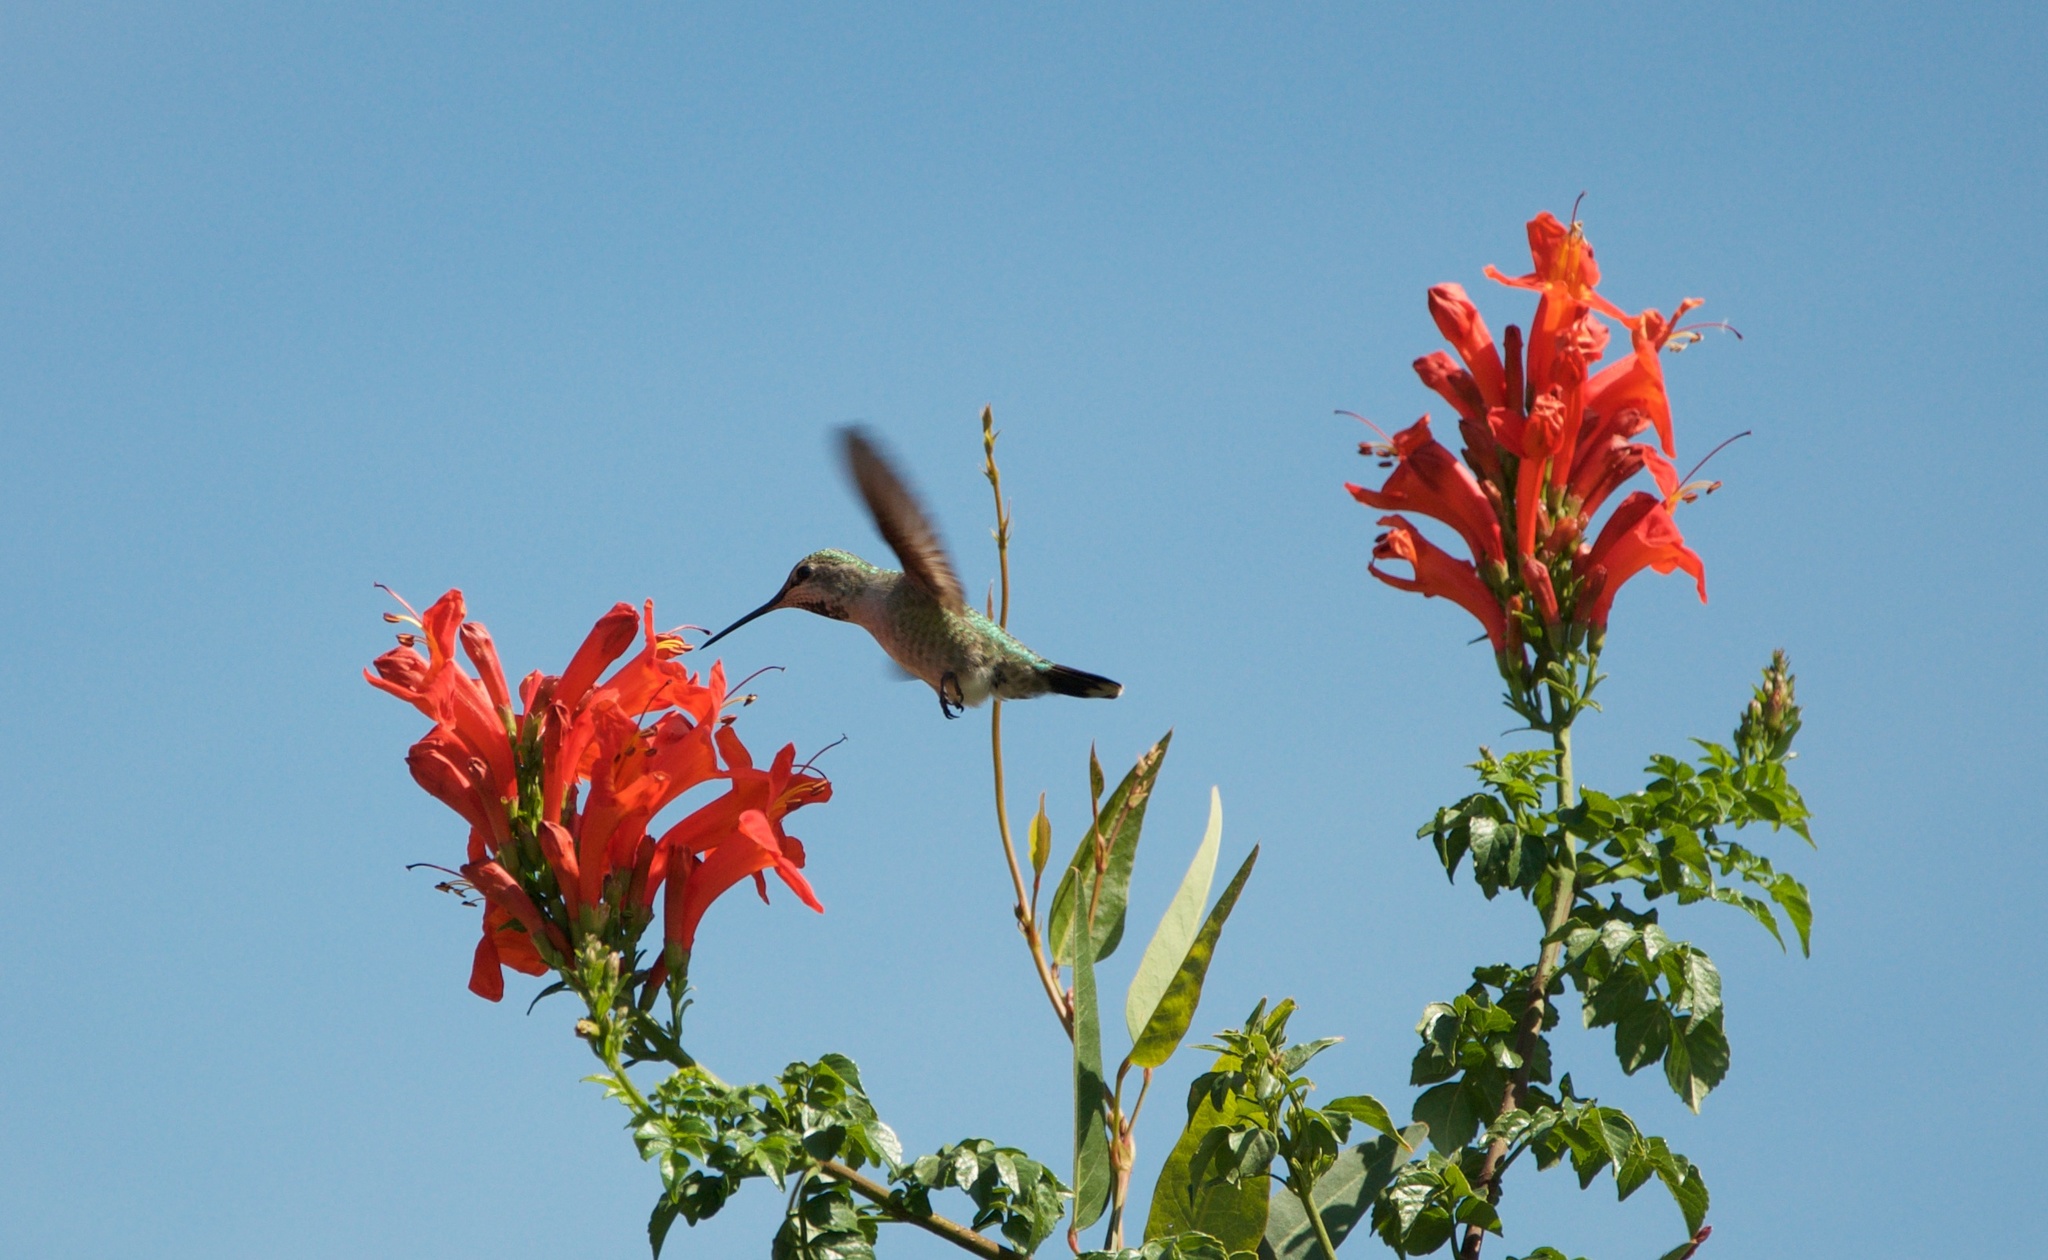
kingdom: Animalia
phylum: Chordata
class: Aves
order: Apodiformes
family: Trochilidae
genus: Calypte
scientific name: Calypte anna
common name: Anna's hummingbird
